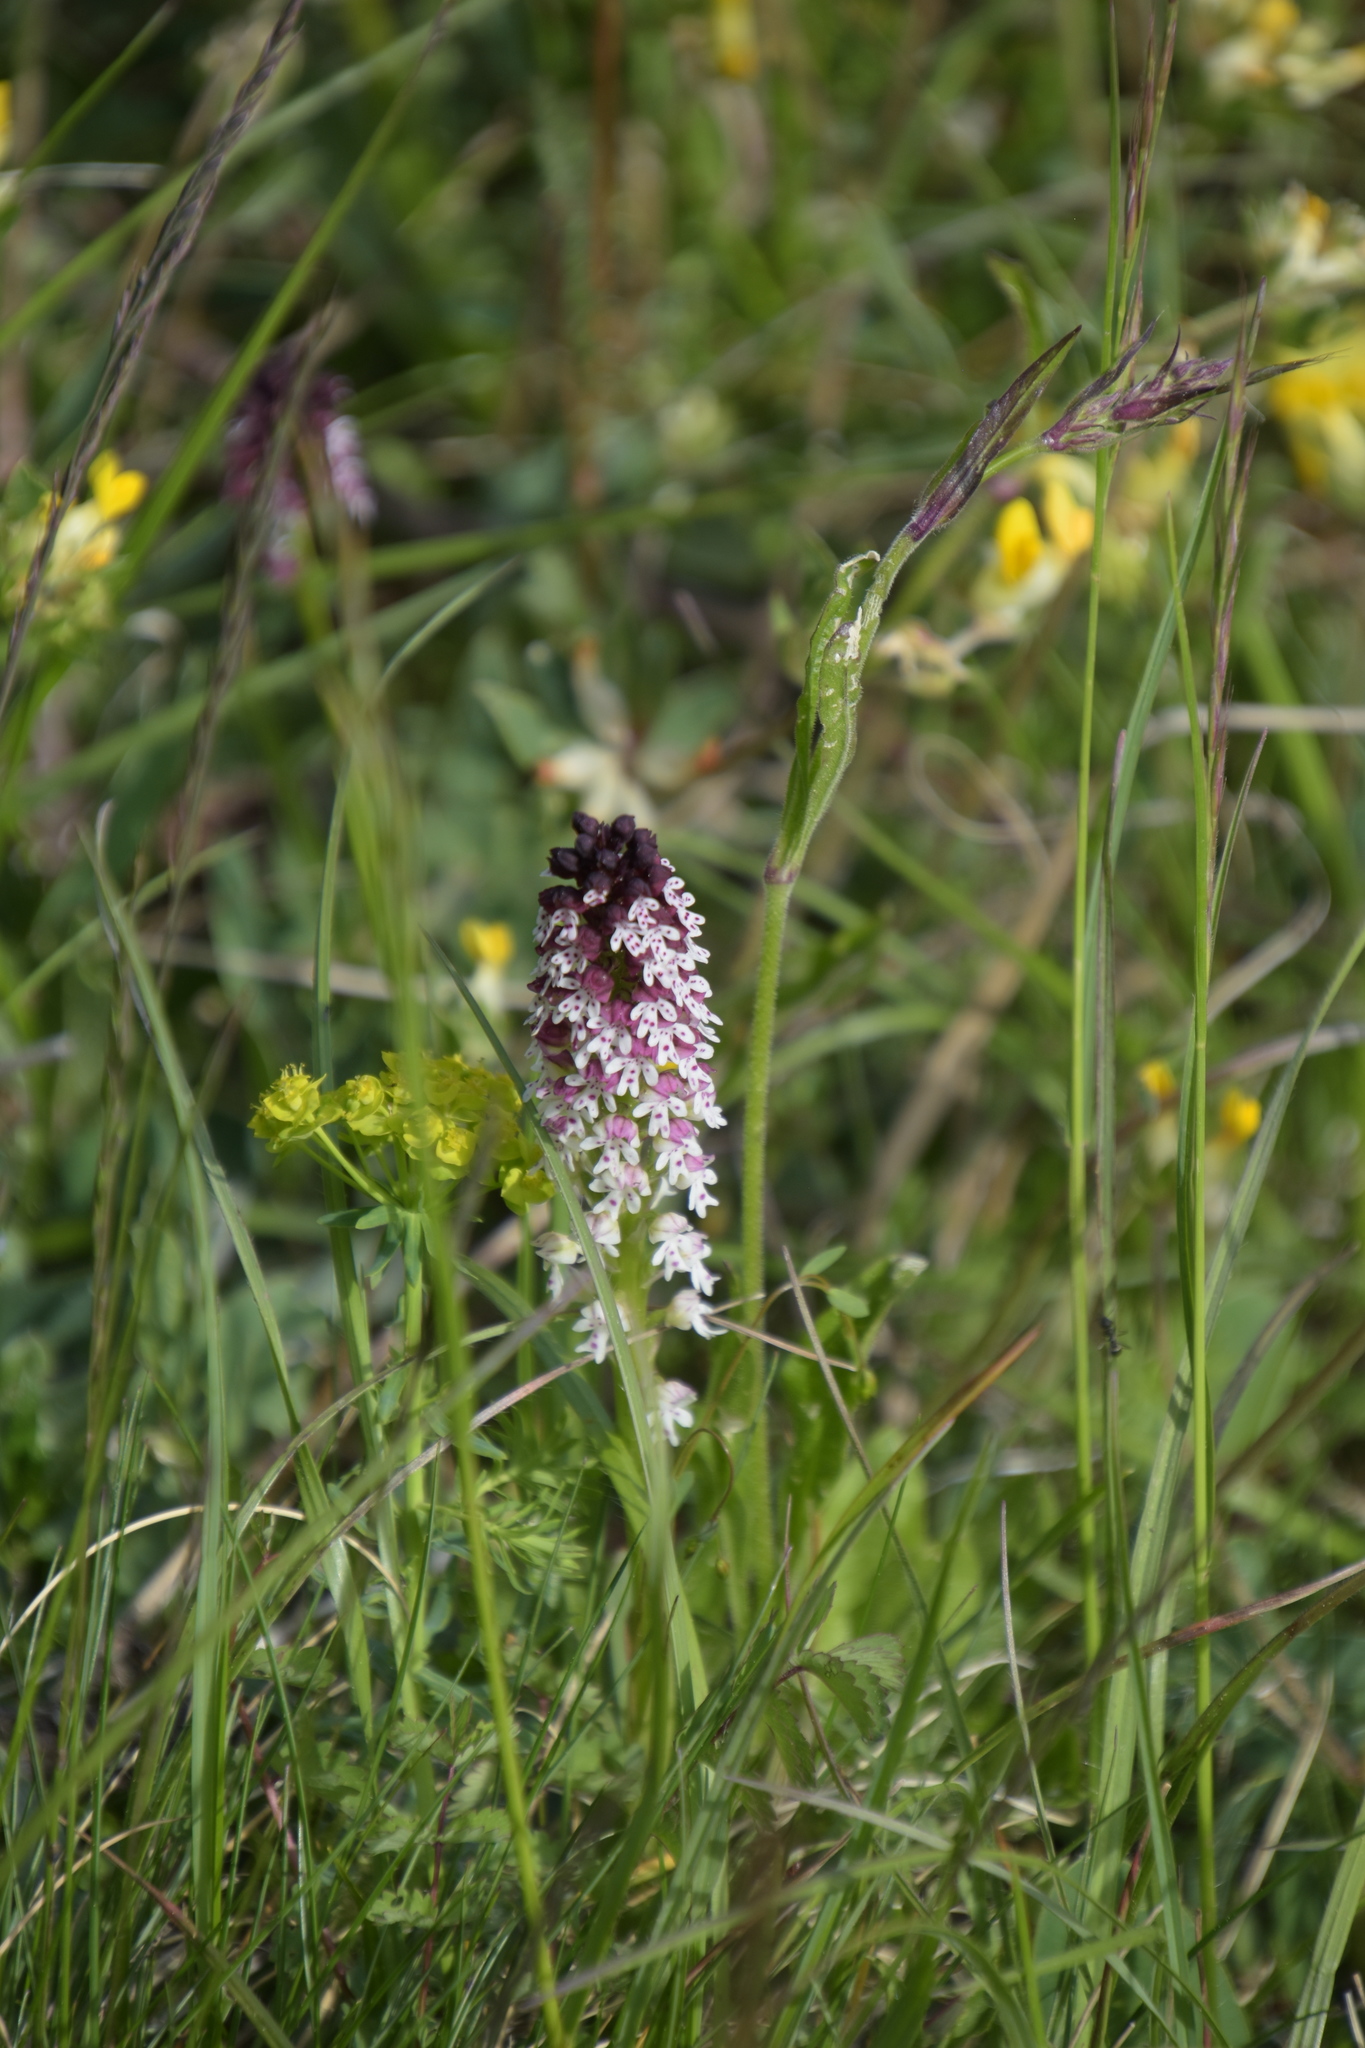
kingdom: Plantae
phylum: Tracheophyta
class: Liliopsida
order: Asparagales
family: Orchidaceae
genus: Neotinea
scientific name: Neotinea ustulata
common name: Burnt orchid
